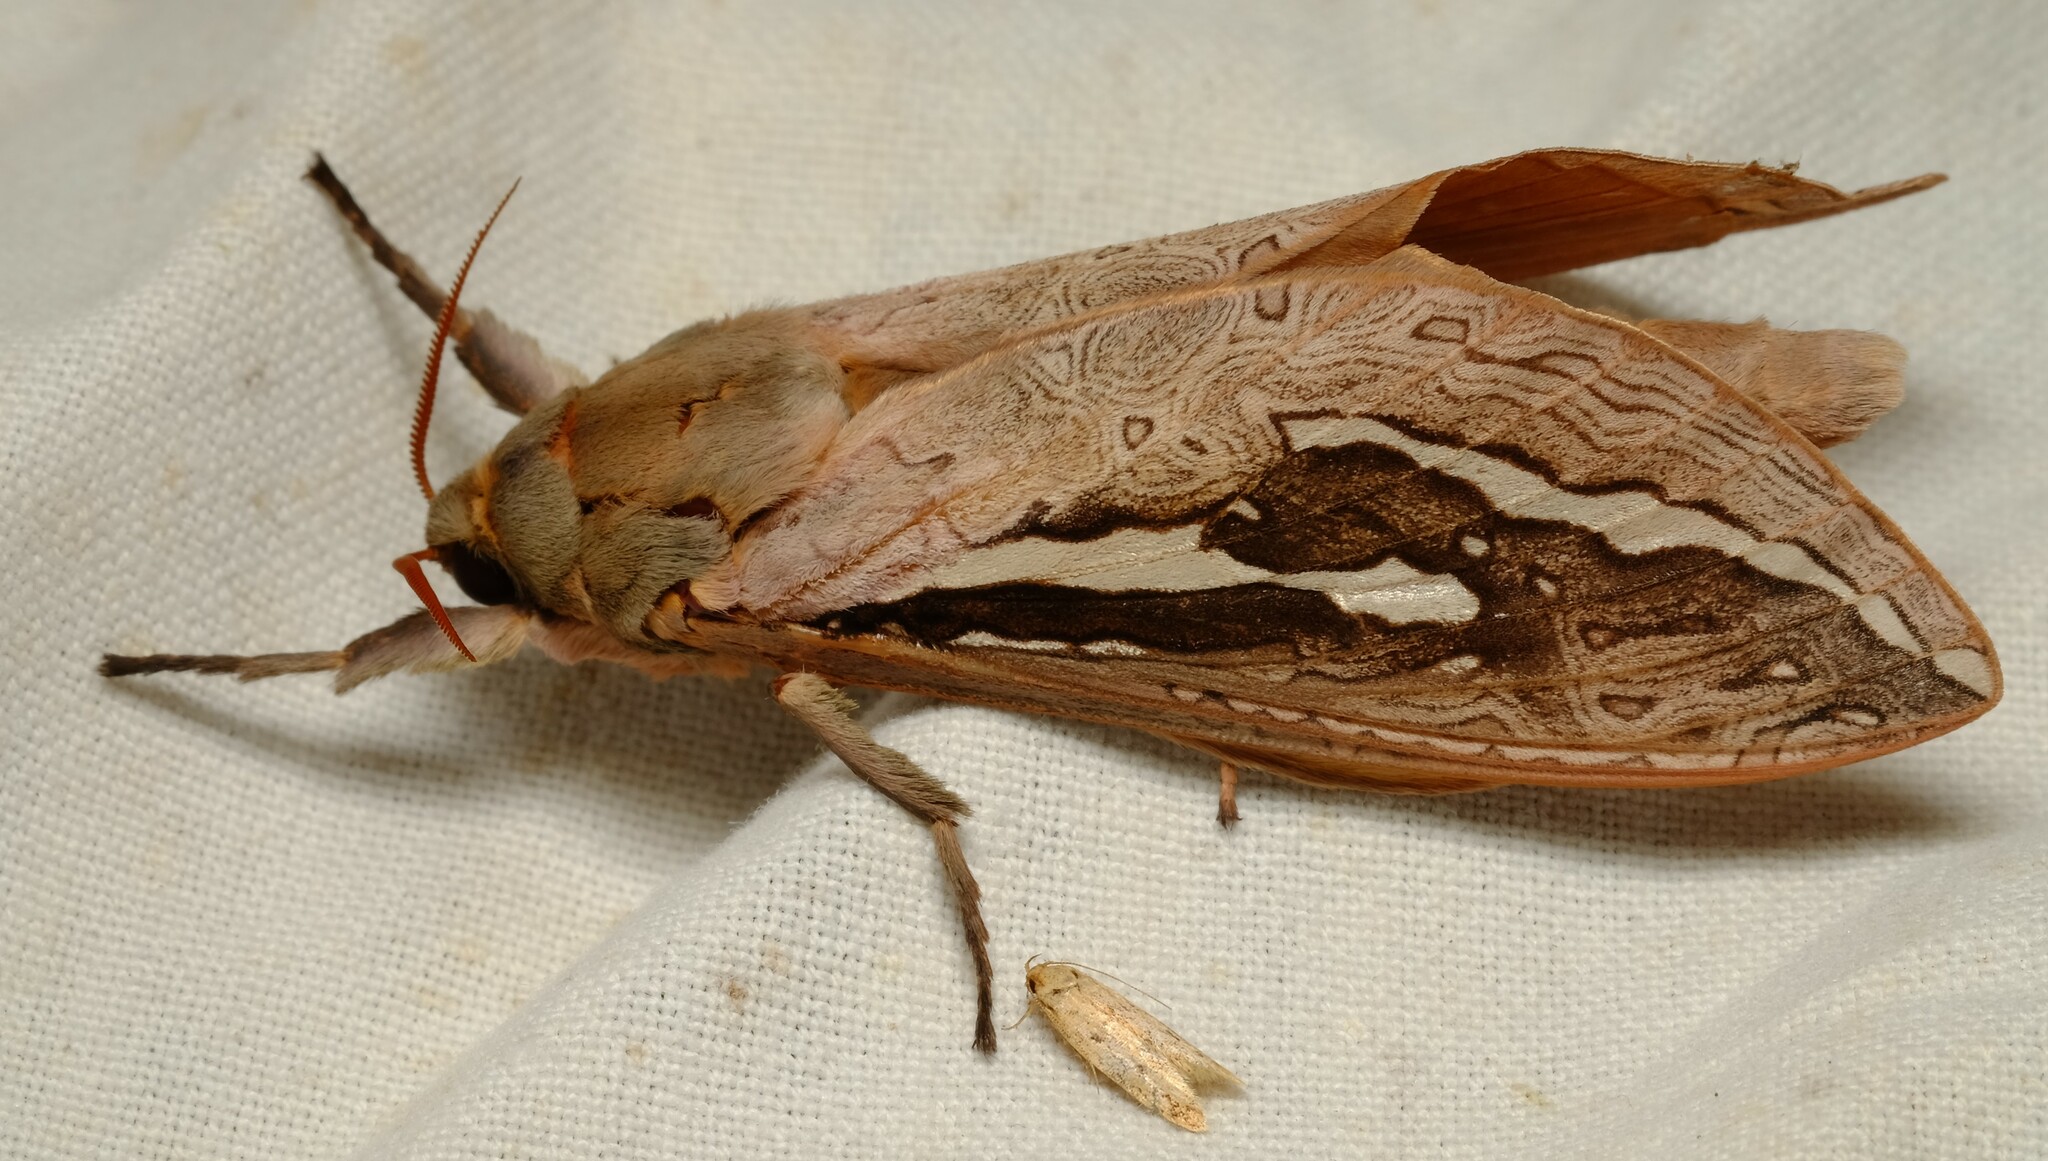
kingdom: Animalia
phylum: Arthropoda
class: Insecta
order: Lepidoptera
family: Hepialidae
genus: Abantiades
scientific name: Abantiades labyrinthicus
